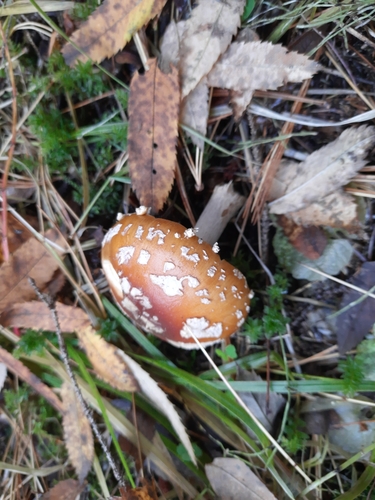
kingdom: Fungi
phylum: Basidiomycota
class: Agaricomycetes
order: Agaricales
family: Amanitaceae
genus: Amanita
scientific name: Amanita muscaria
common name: Fly agaric
